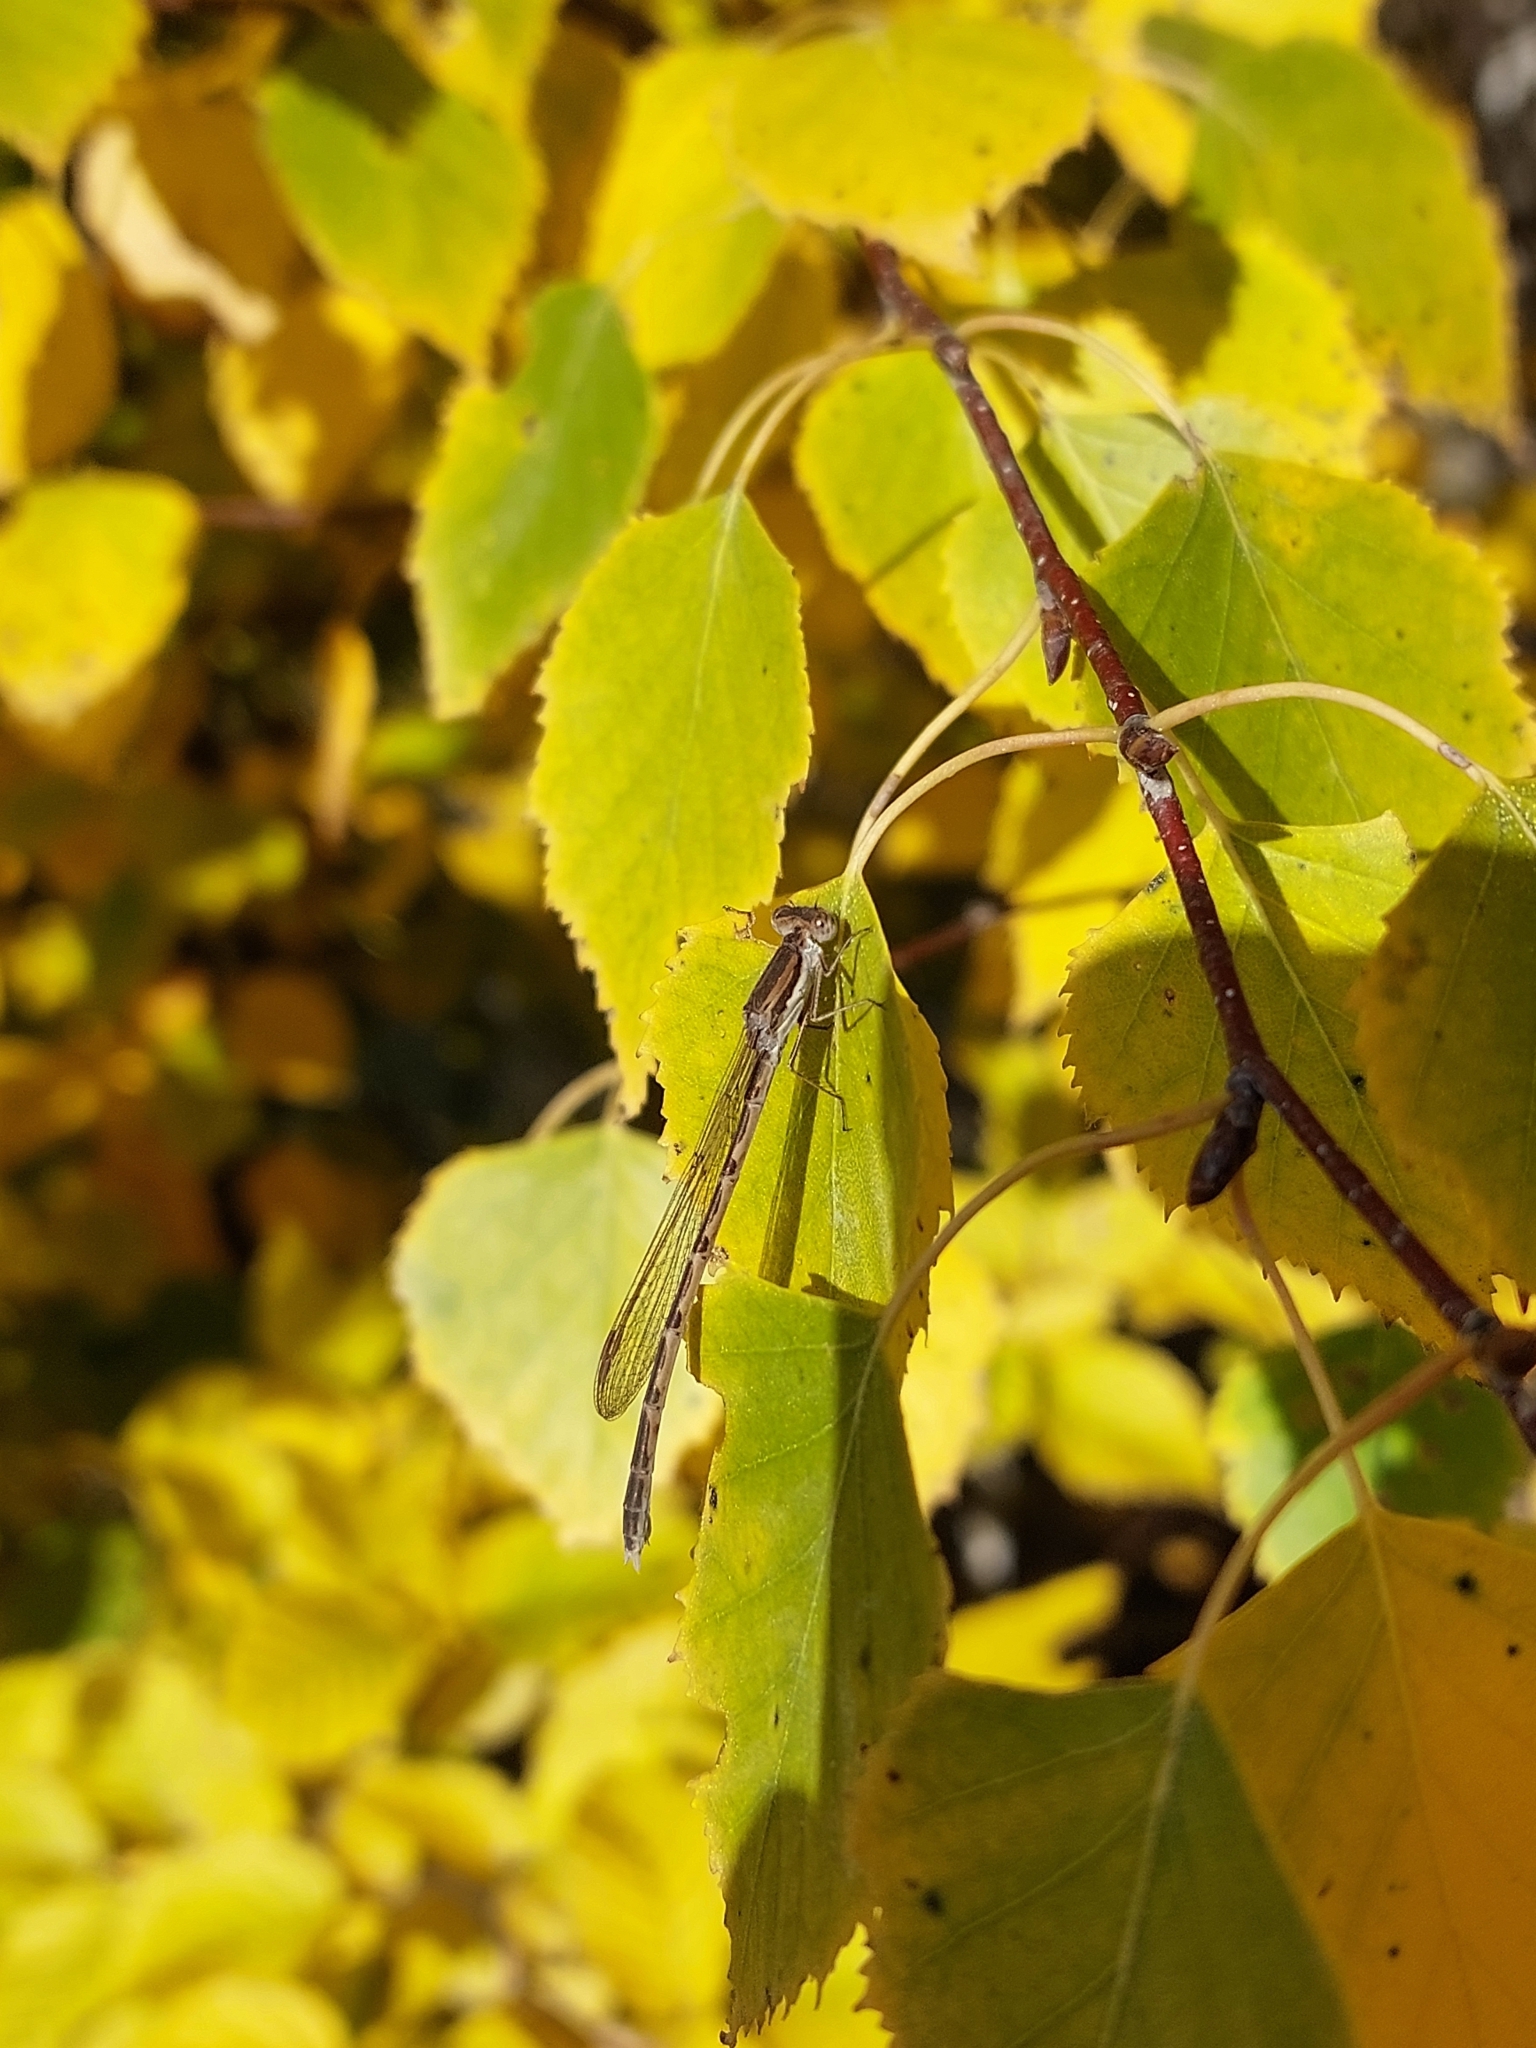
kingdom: Animalia
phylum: Arthropoda
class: Insecta
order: Odonata
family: Lestidae
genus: Sympecma
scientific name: Sympecma fusca
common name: Common winter damsel
